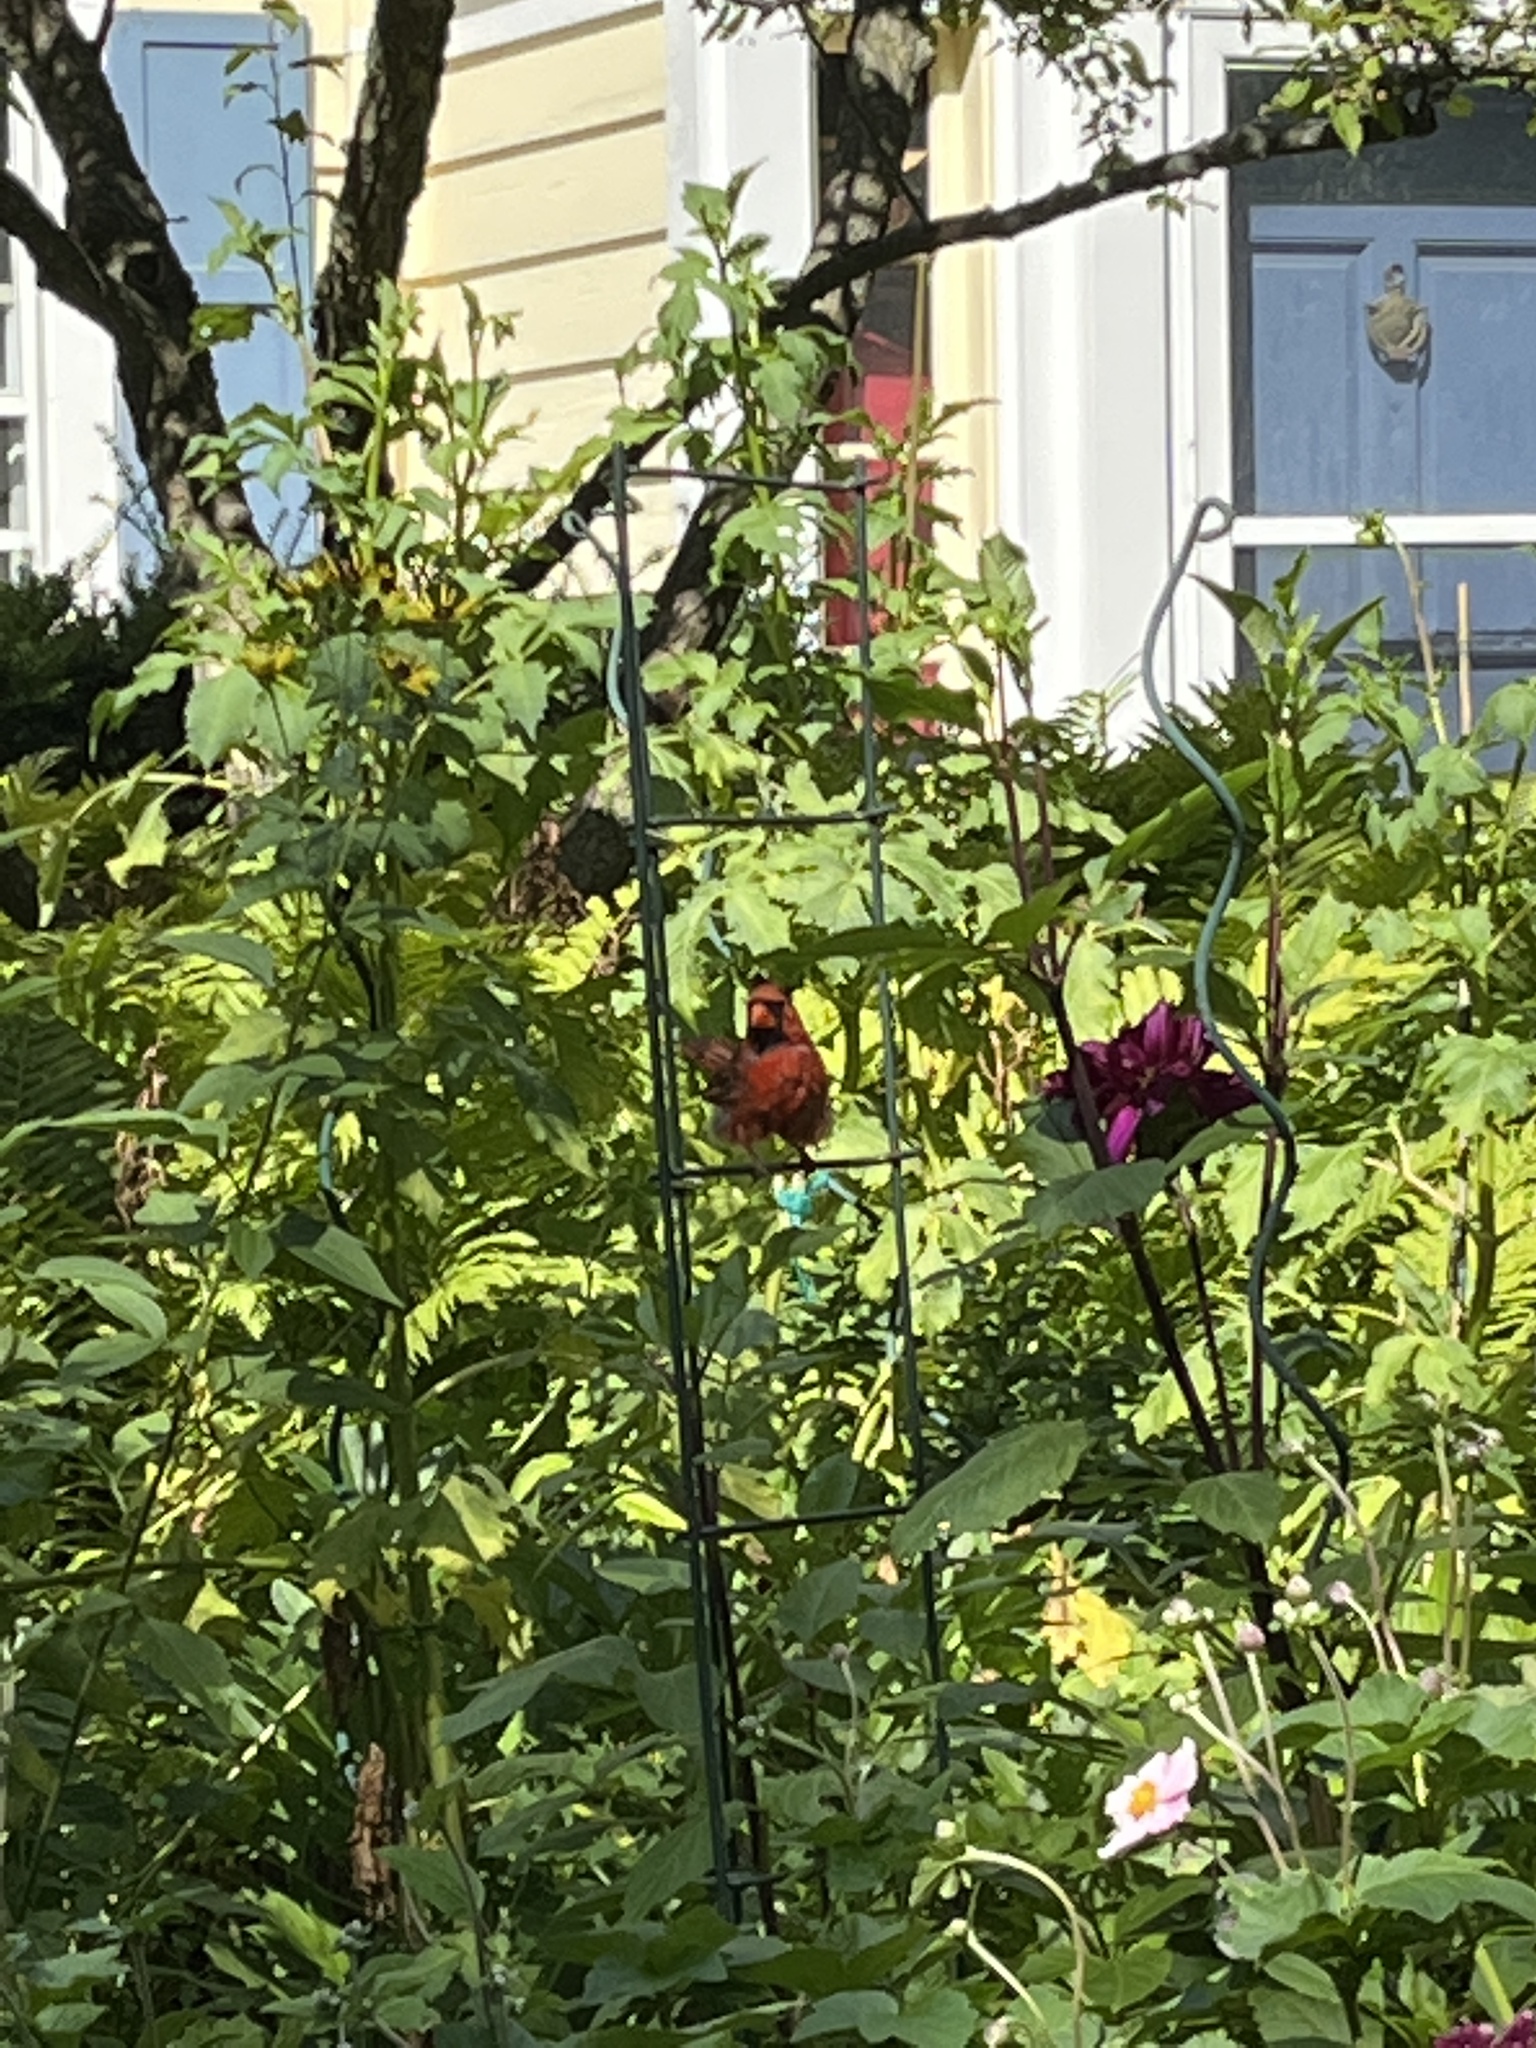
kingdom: Animalia
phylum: Chordata
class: Aves
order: Passeriformes
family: Cardinalidae
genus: Cardinalis
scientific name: Cardinalis cardinalis
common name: Northern cardinal
